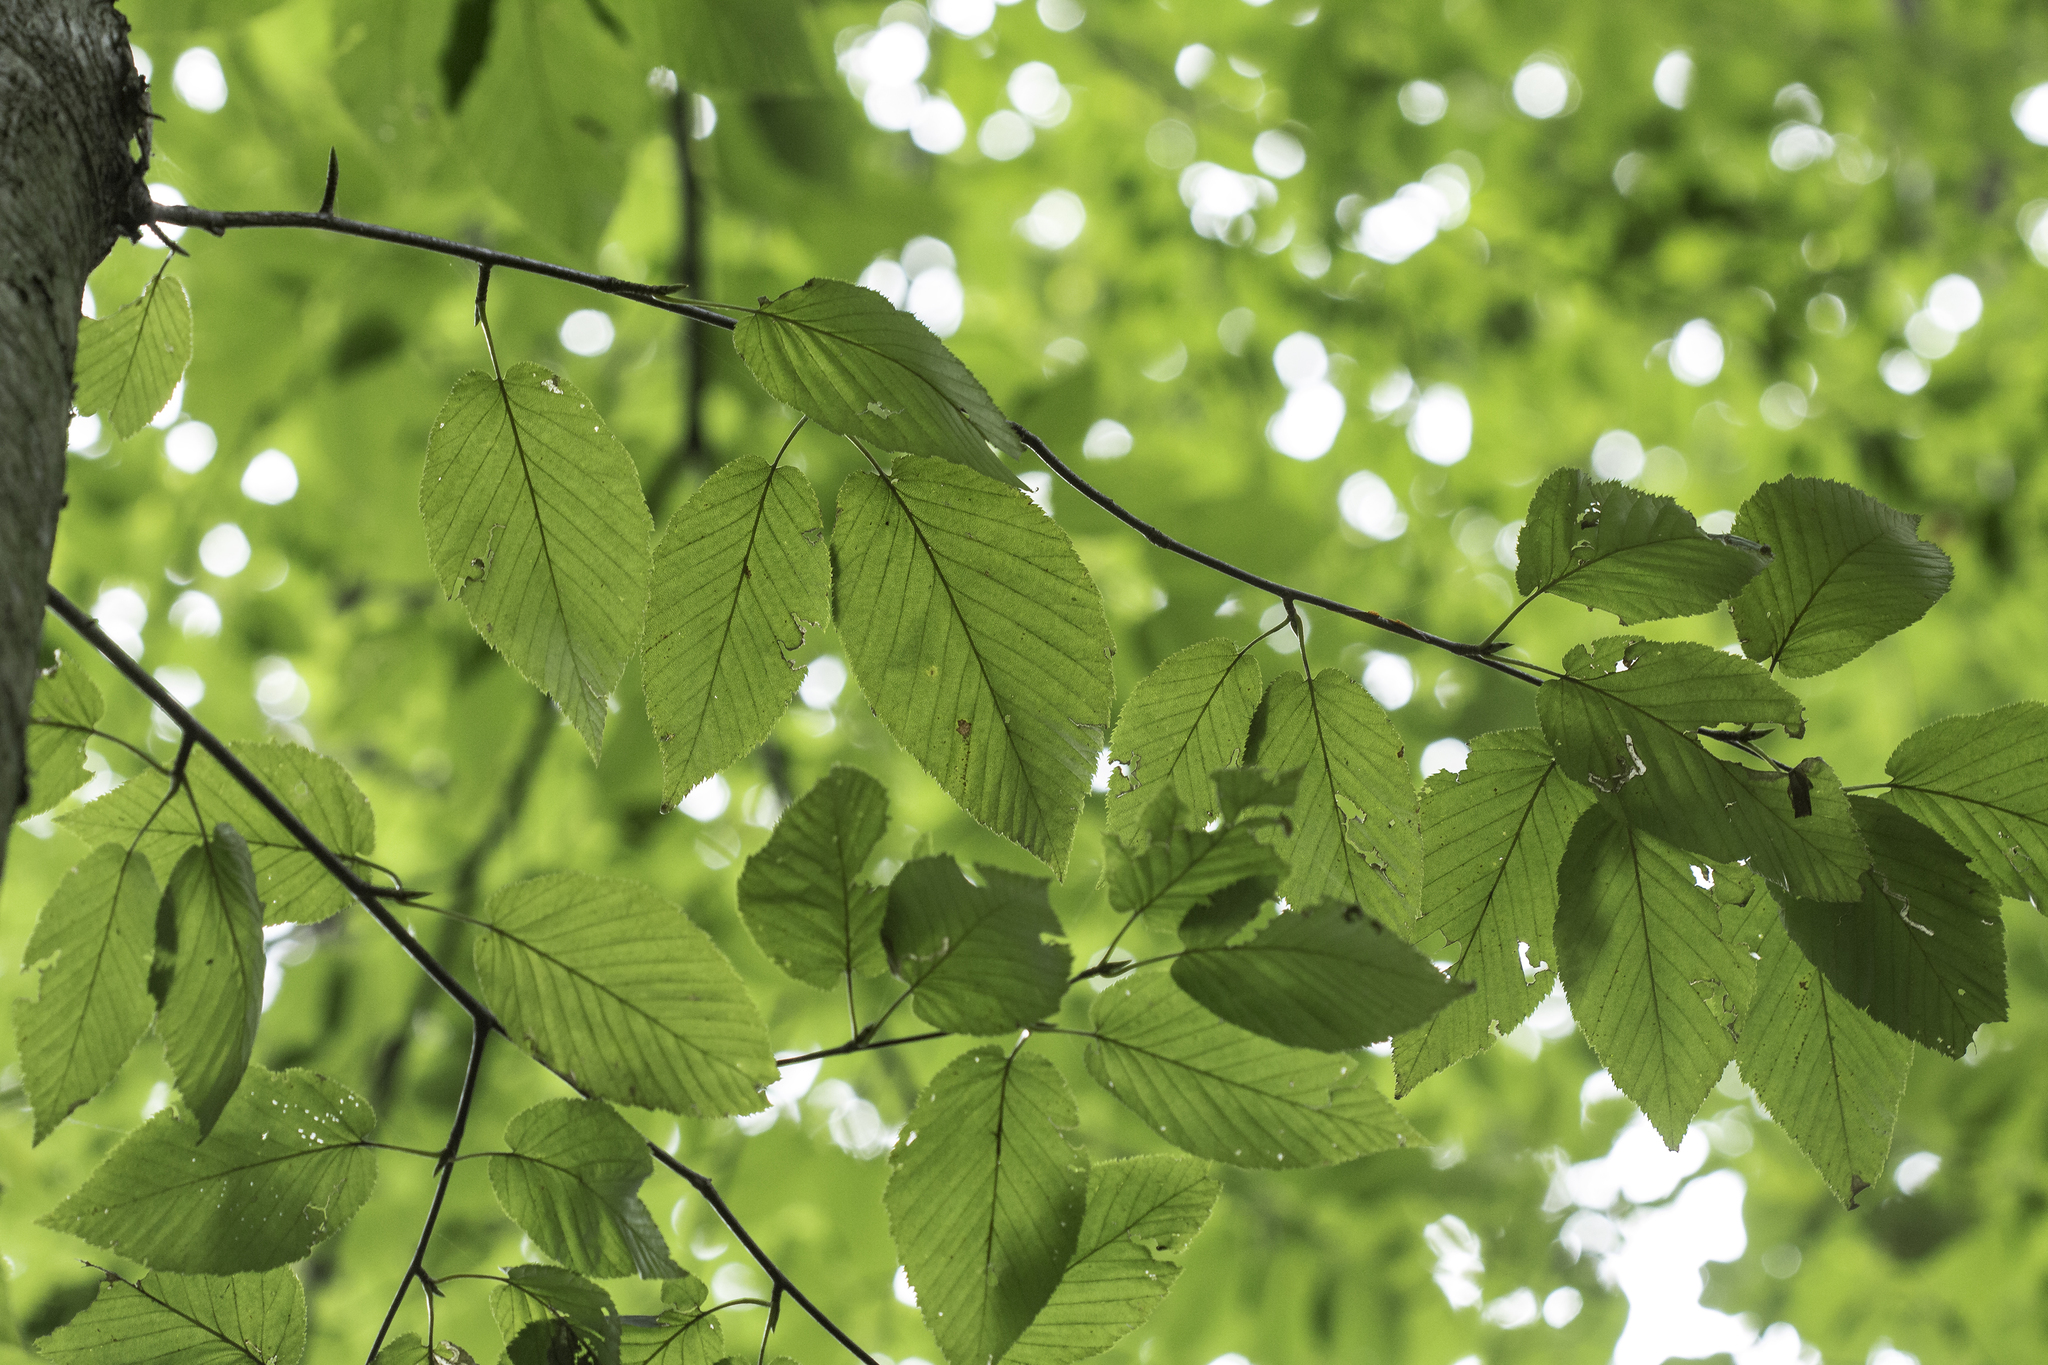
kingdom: Plantae
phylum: Tracheophyta
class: Magnoliopsida
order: Fagales
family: Betulaceae
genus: Betula
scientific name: Betula lenta
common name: Black birch
